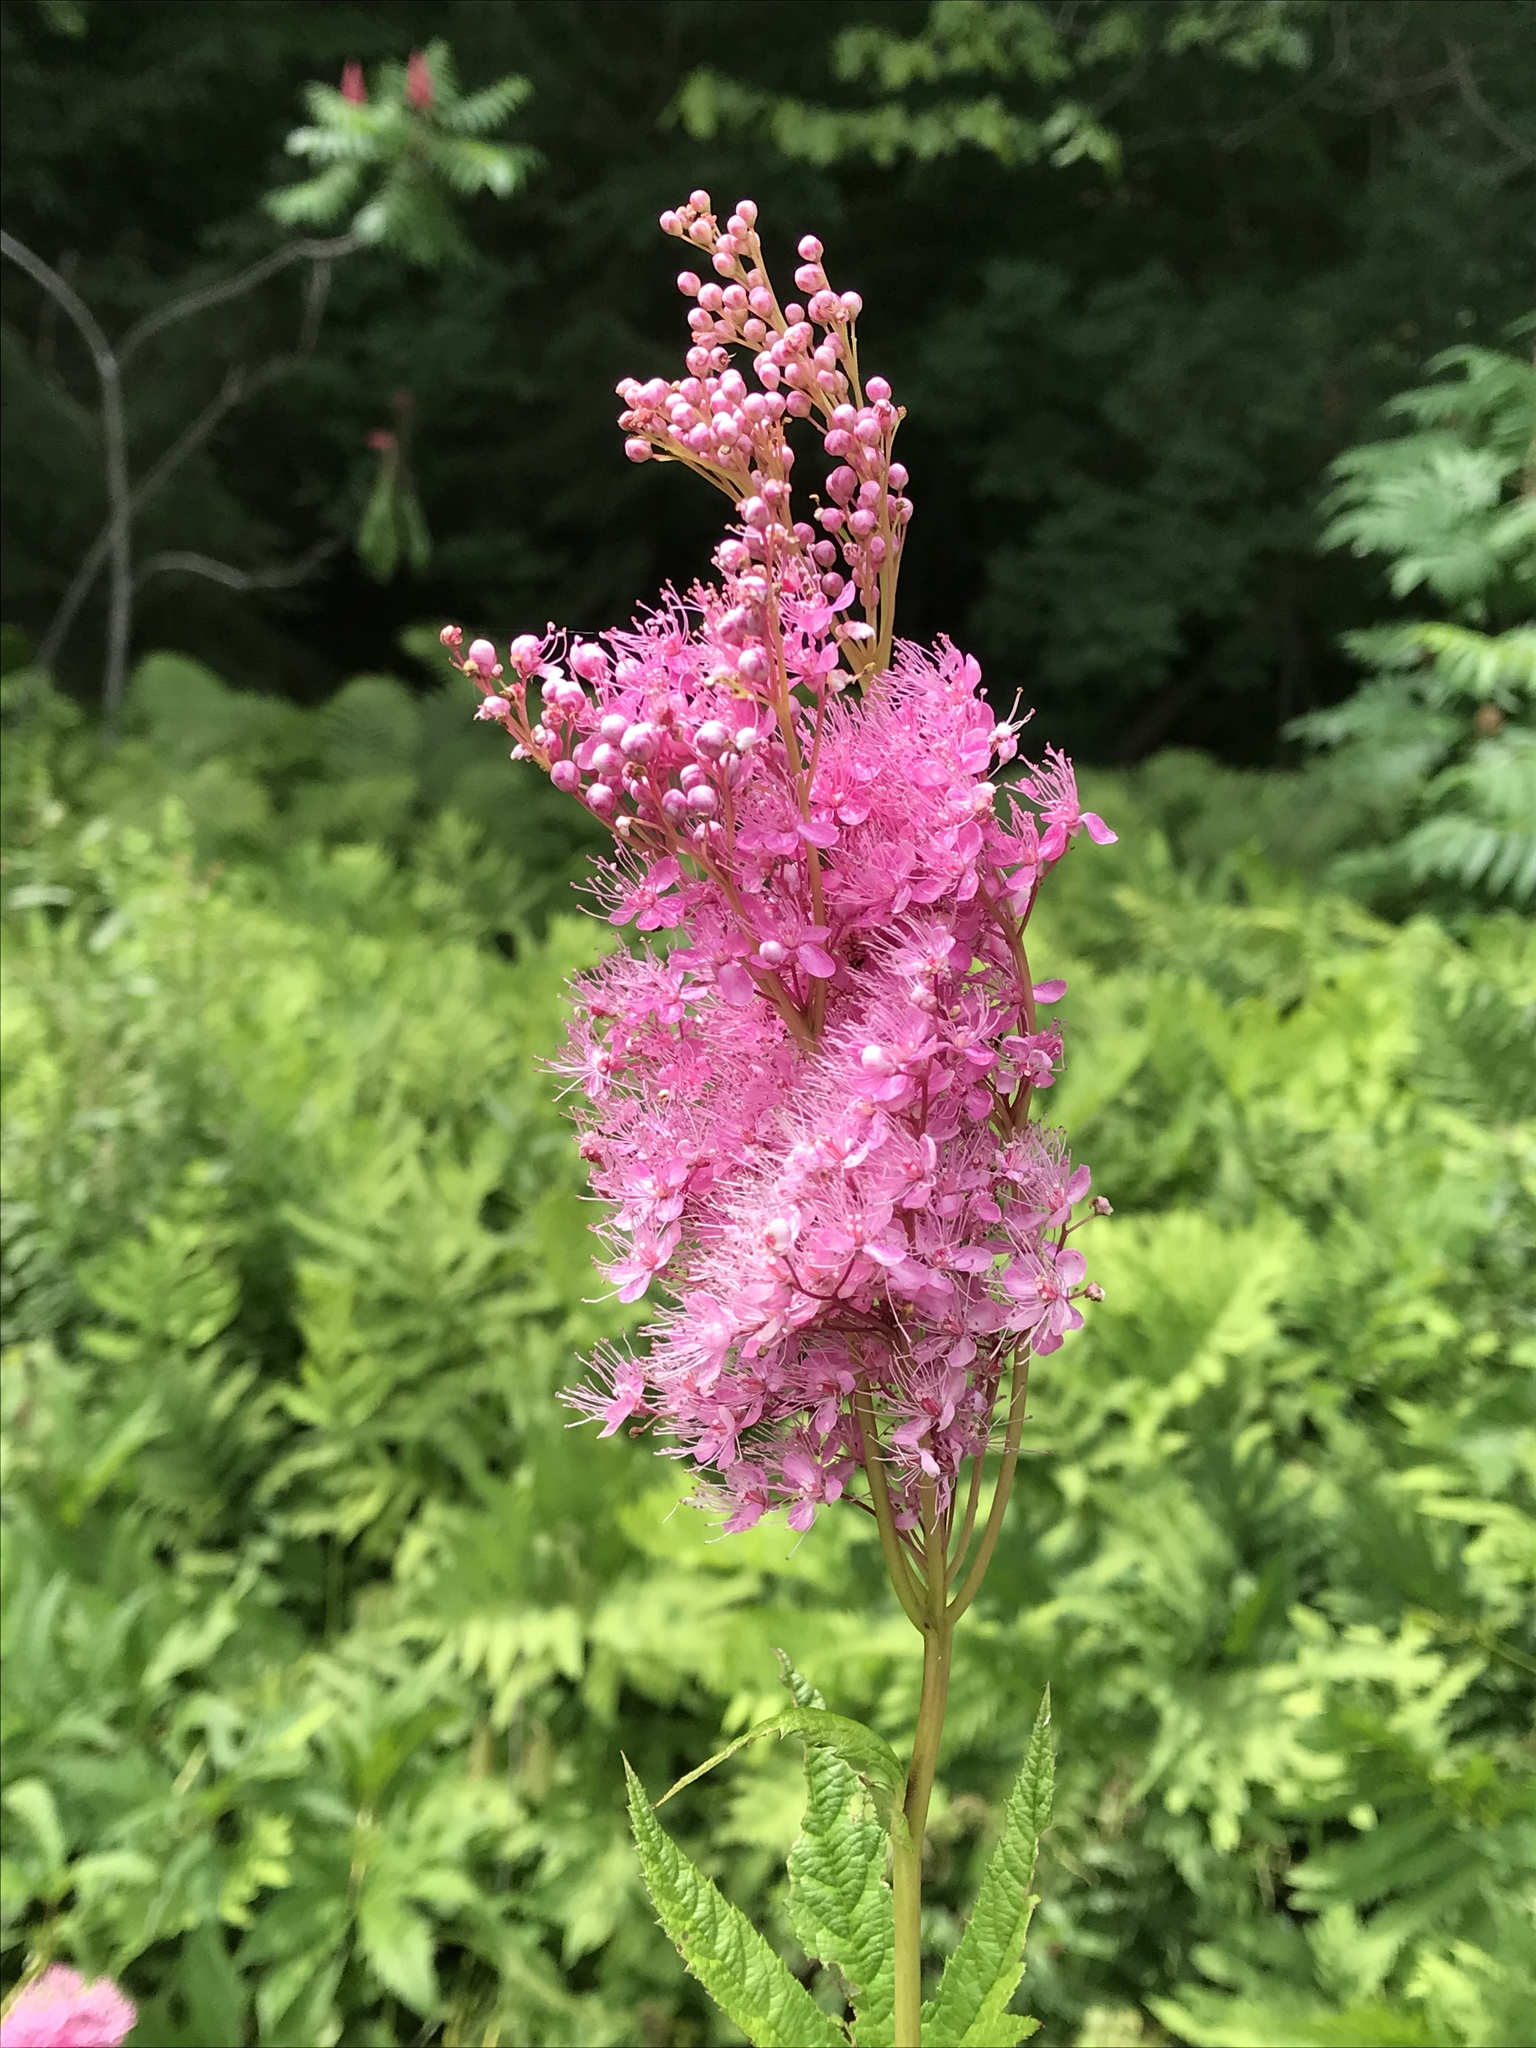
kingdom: Plantae
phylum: Tracheophyta
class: Magnoliopsida
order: Rosales
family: Rosaceae
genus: Filipendula
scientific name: Filipendula rubra
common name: Queen-of-the-prairie
